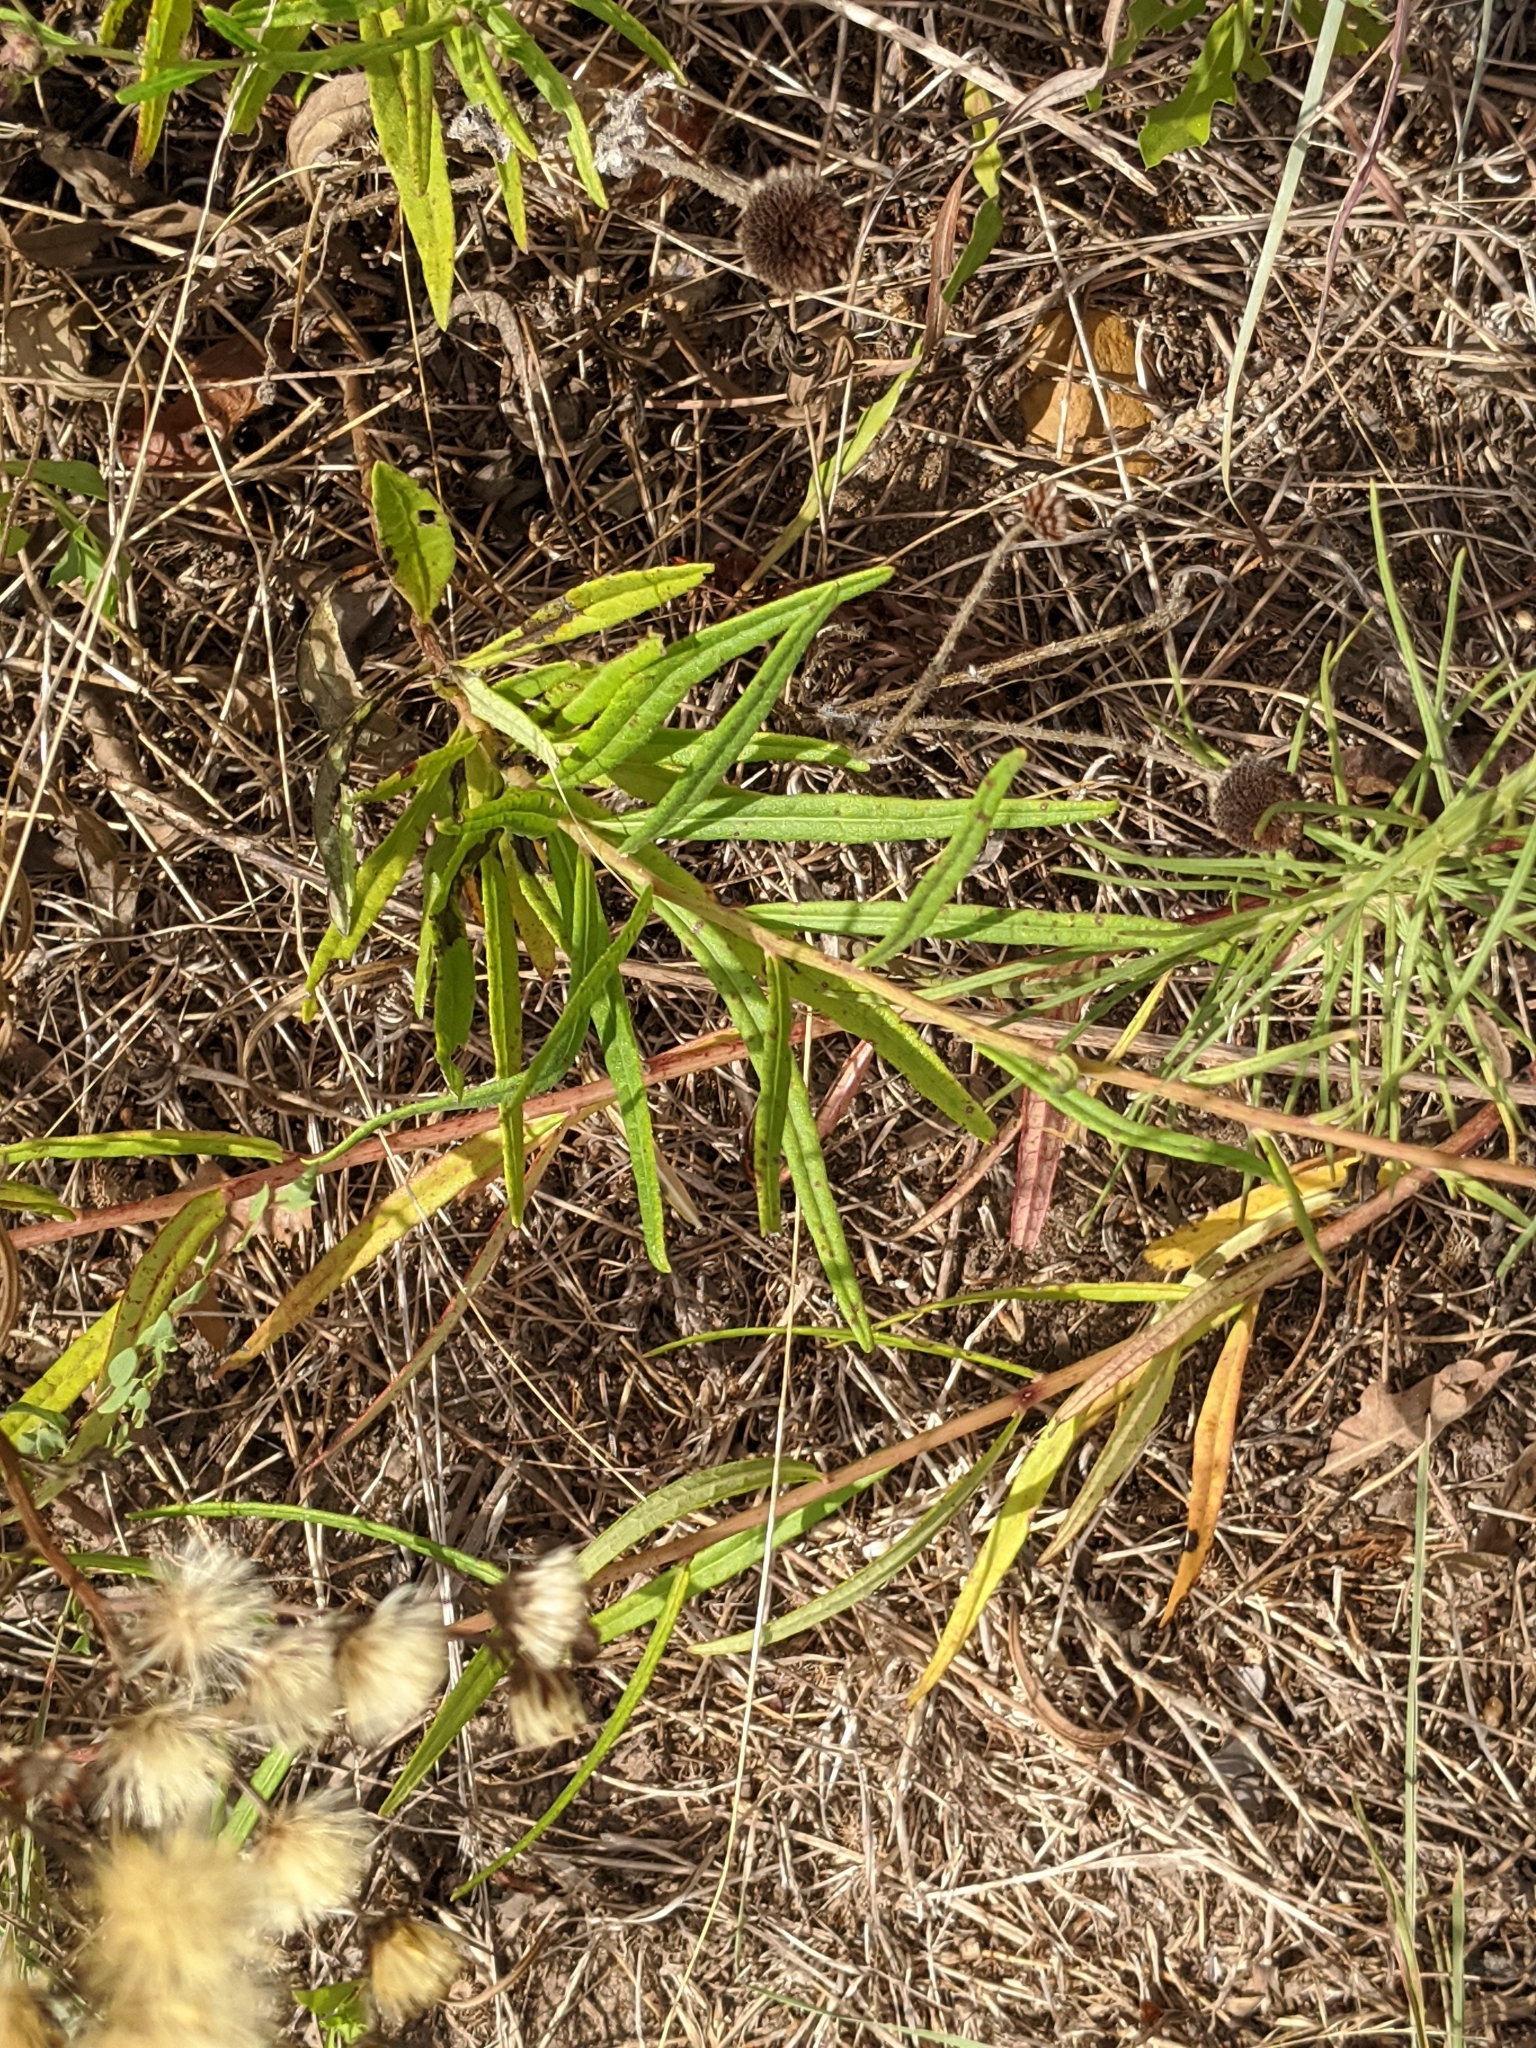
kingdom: Plantae
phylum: Tracheophyta
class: Magnoliopsida
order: Asterales
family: Asteraceae
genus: Vernonia
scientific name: Vernonia texana
